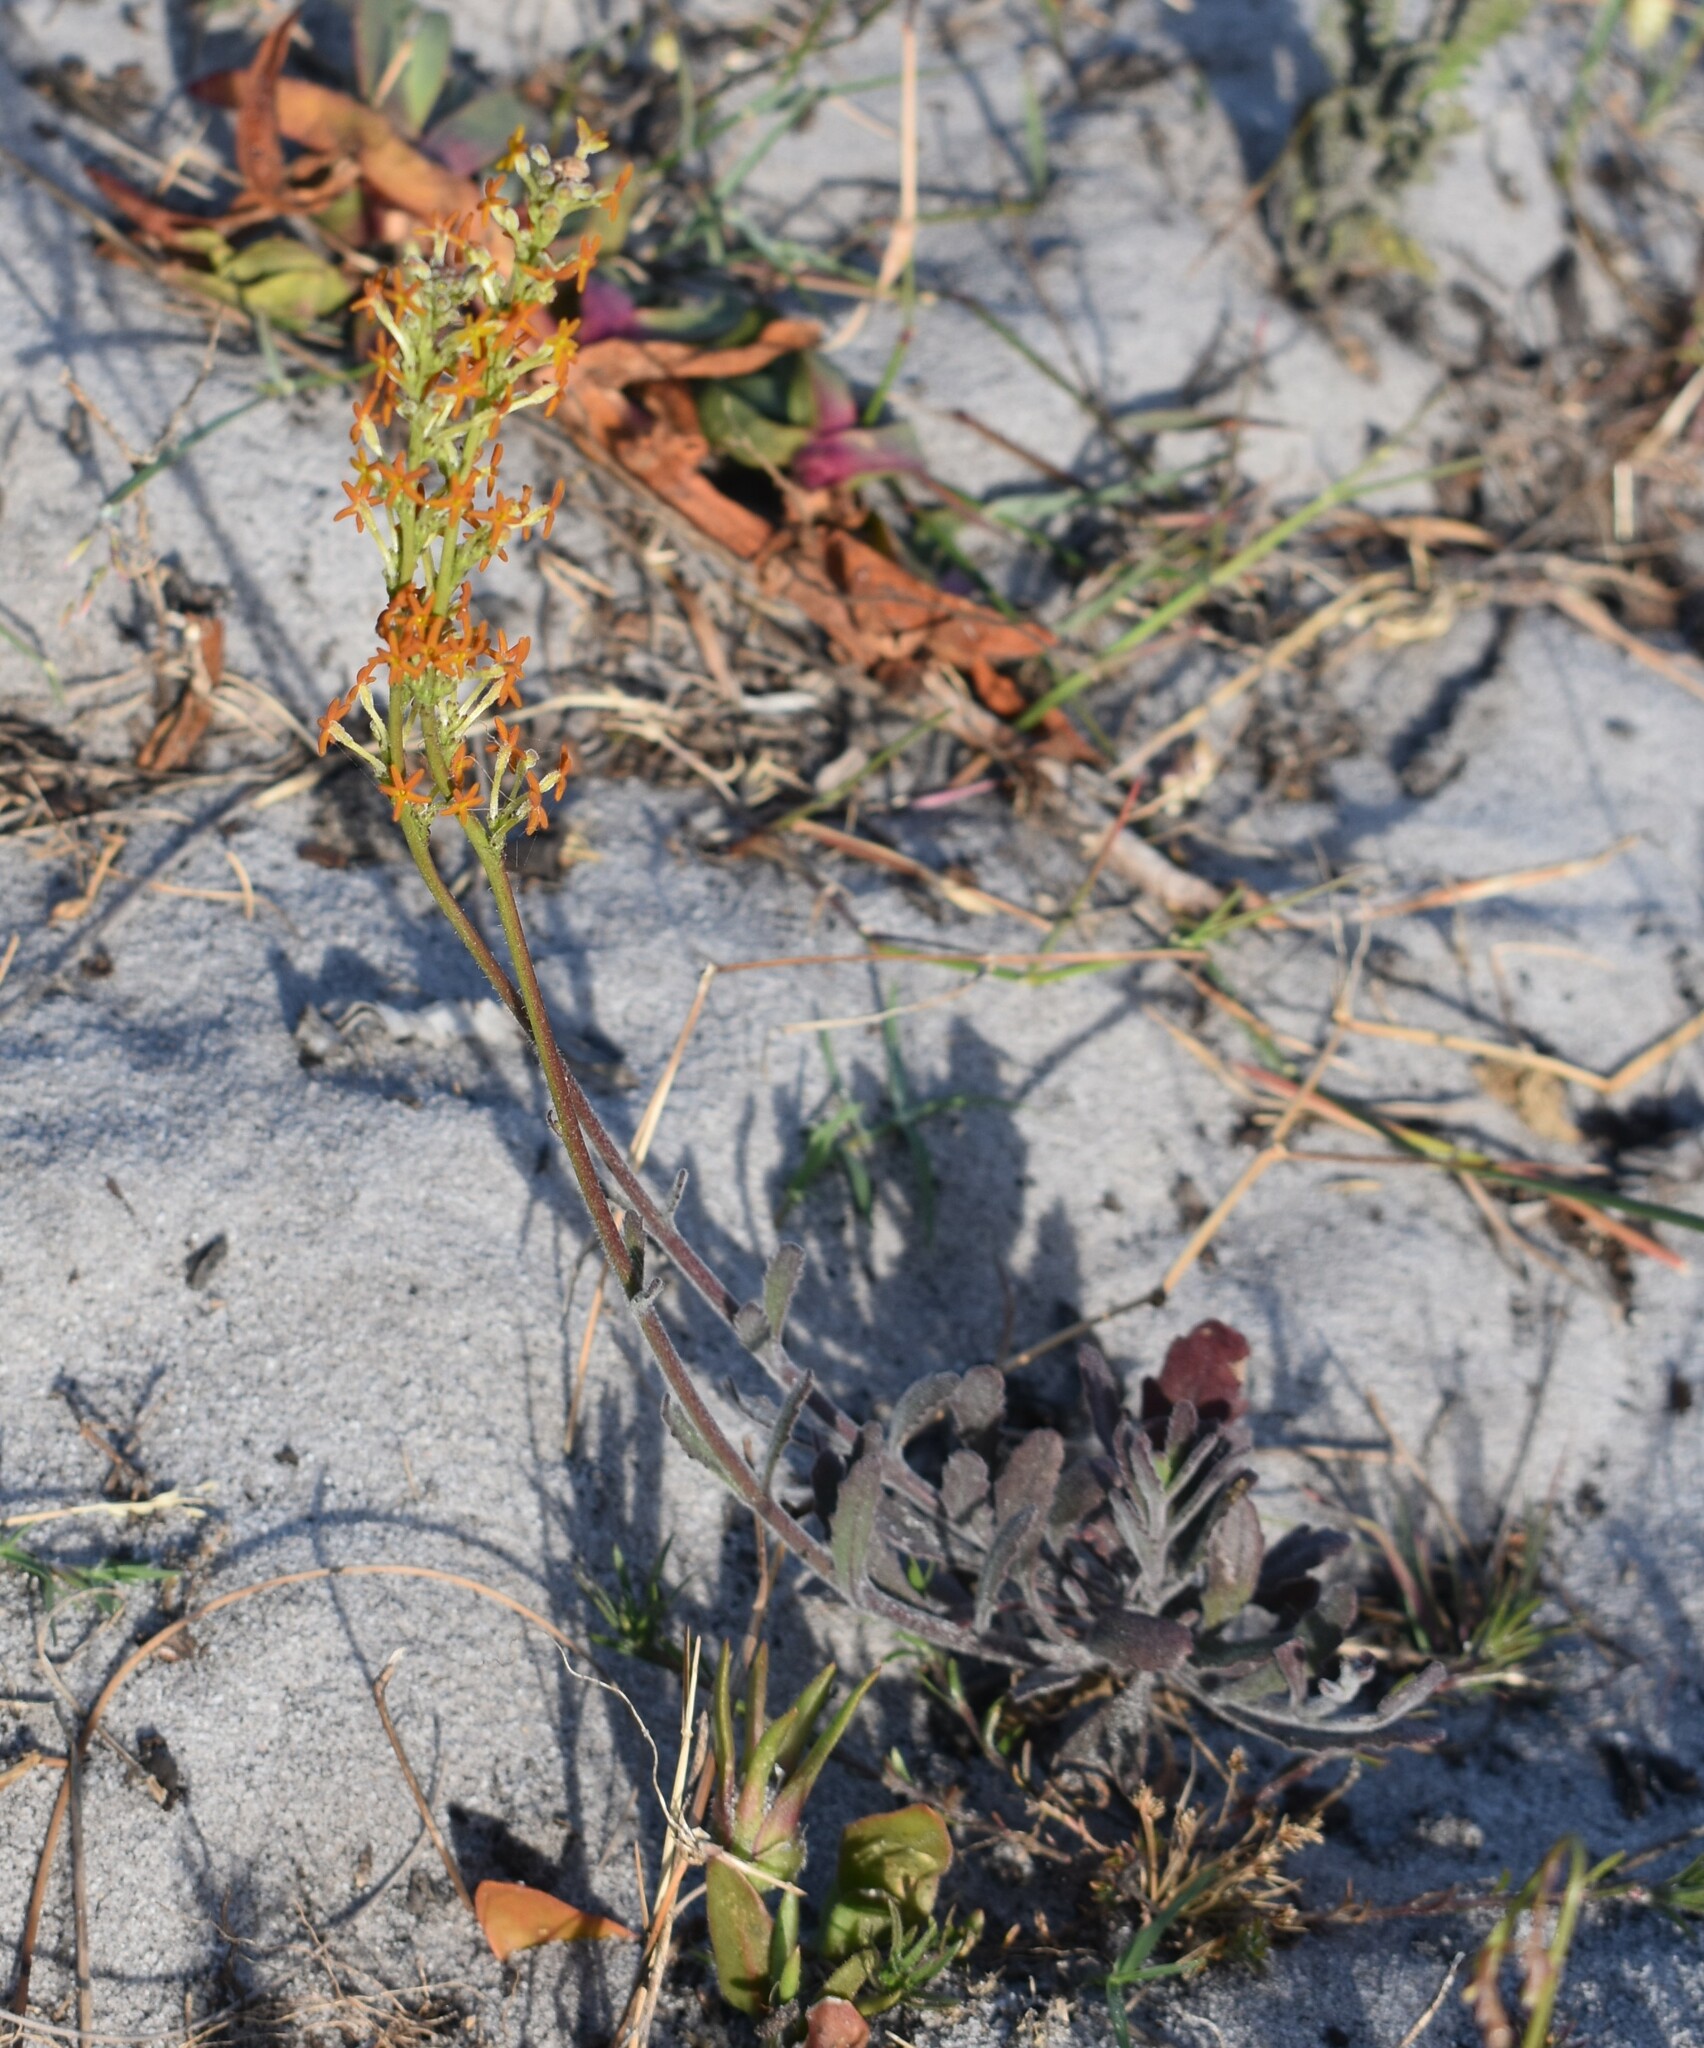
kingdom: Plantae
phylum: Tracheophyta
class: Magnoliopsida
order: Lamiales
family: Scrophulariaceae
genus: Manulea
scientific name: Manulea tomentosa
